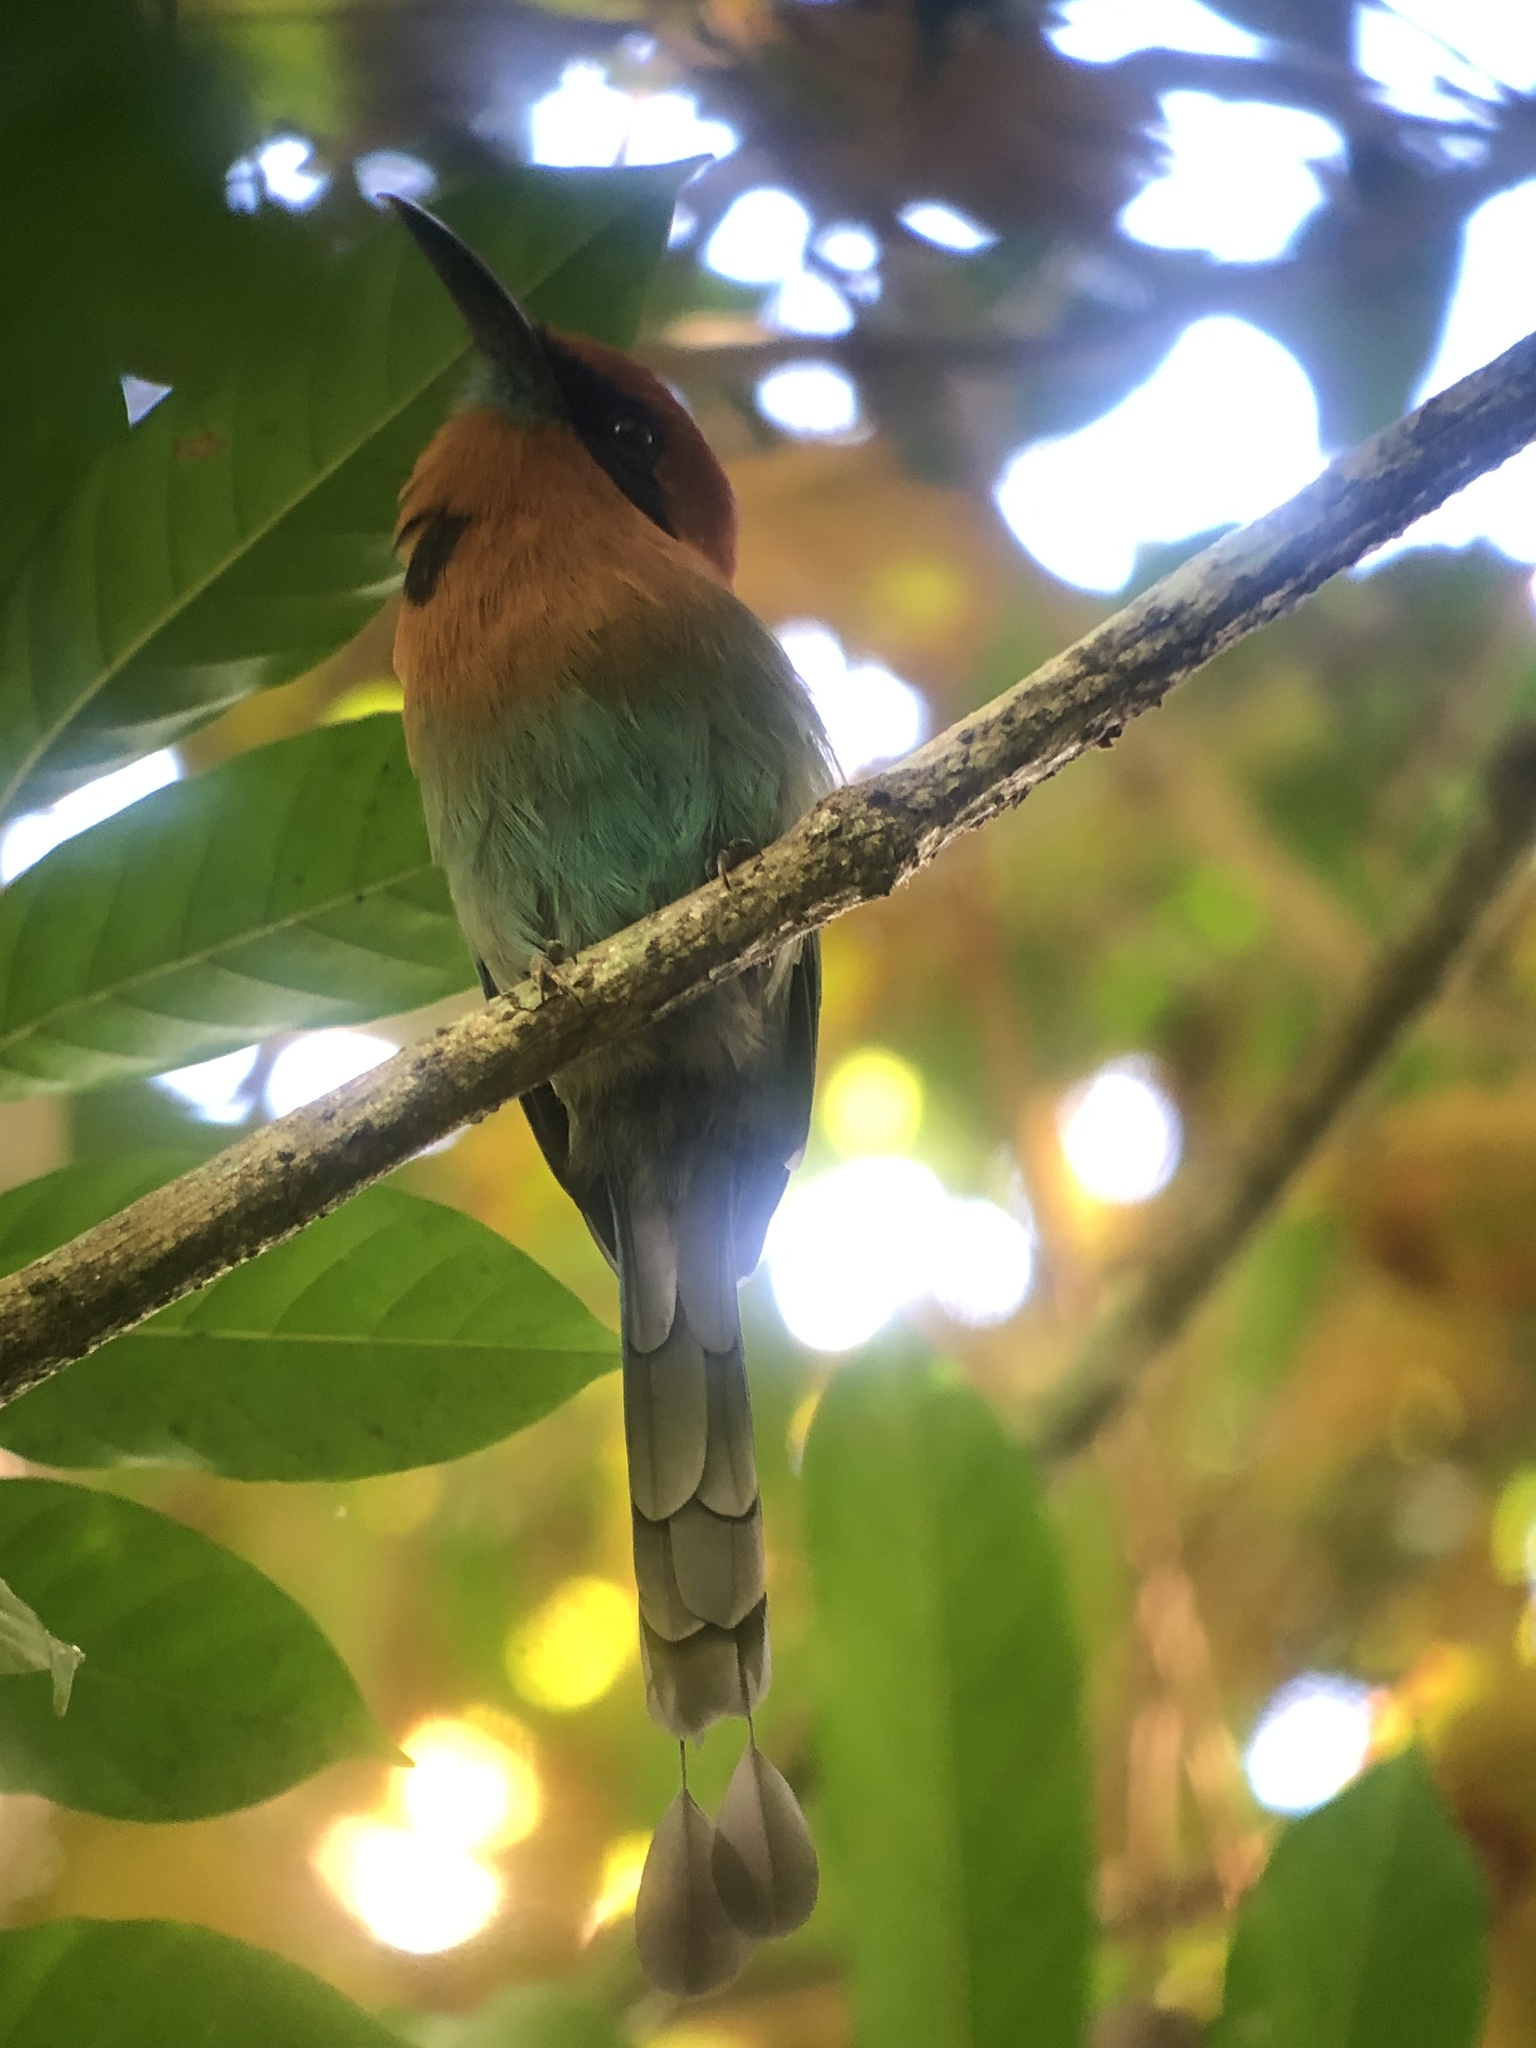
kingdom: Animalia
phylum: Chordata
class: Aves
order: Coraciiformes
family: Momotidae
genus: Electron
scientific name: Electron platyrhynchum
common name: Broad-billed motmot
